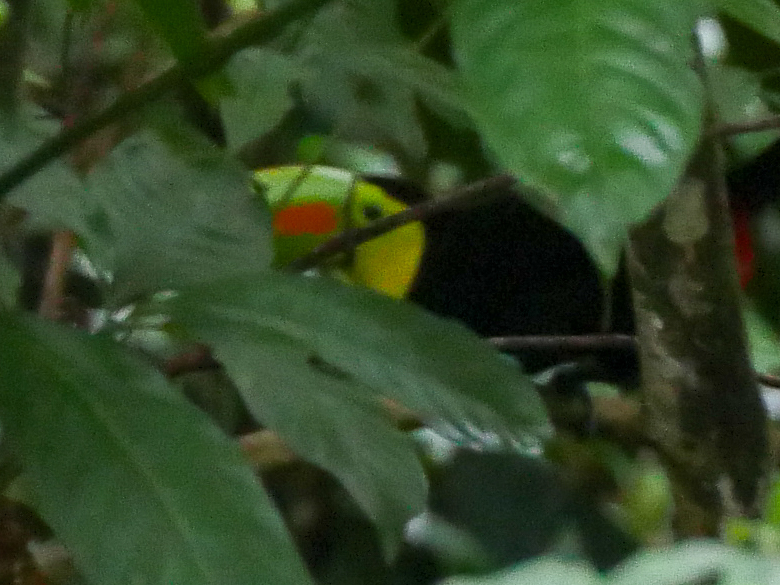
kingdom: Animalia
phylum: Chordata
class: Aves
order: Piciformes
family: Ramphastidae
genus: Ramphastos
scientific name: Ramphastos sulfuratus
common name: Keel-billed toucan
